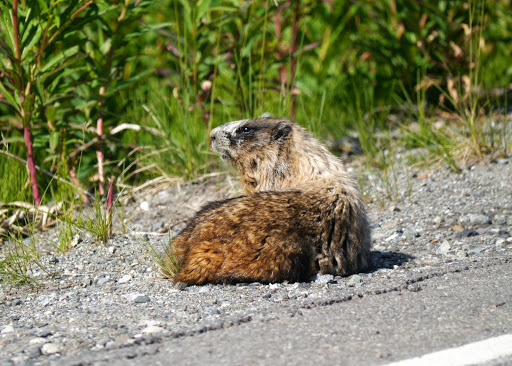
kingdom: Animalia
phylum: Chordata
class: Mammalia
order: Rodentia
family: Sciuridae
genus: Marmota
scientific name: Marmota caligata
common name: Hoary marmot
